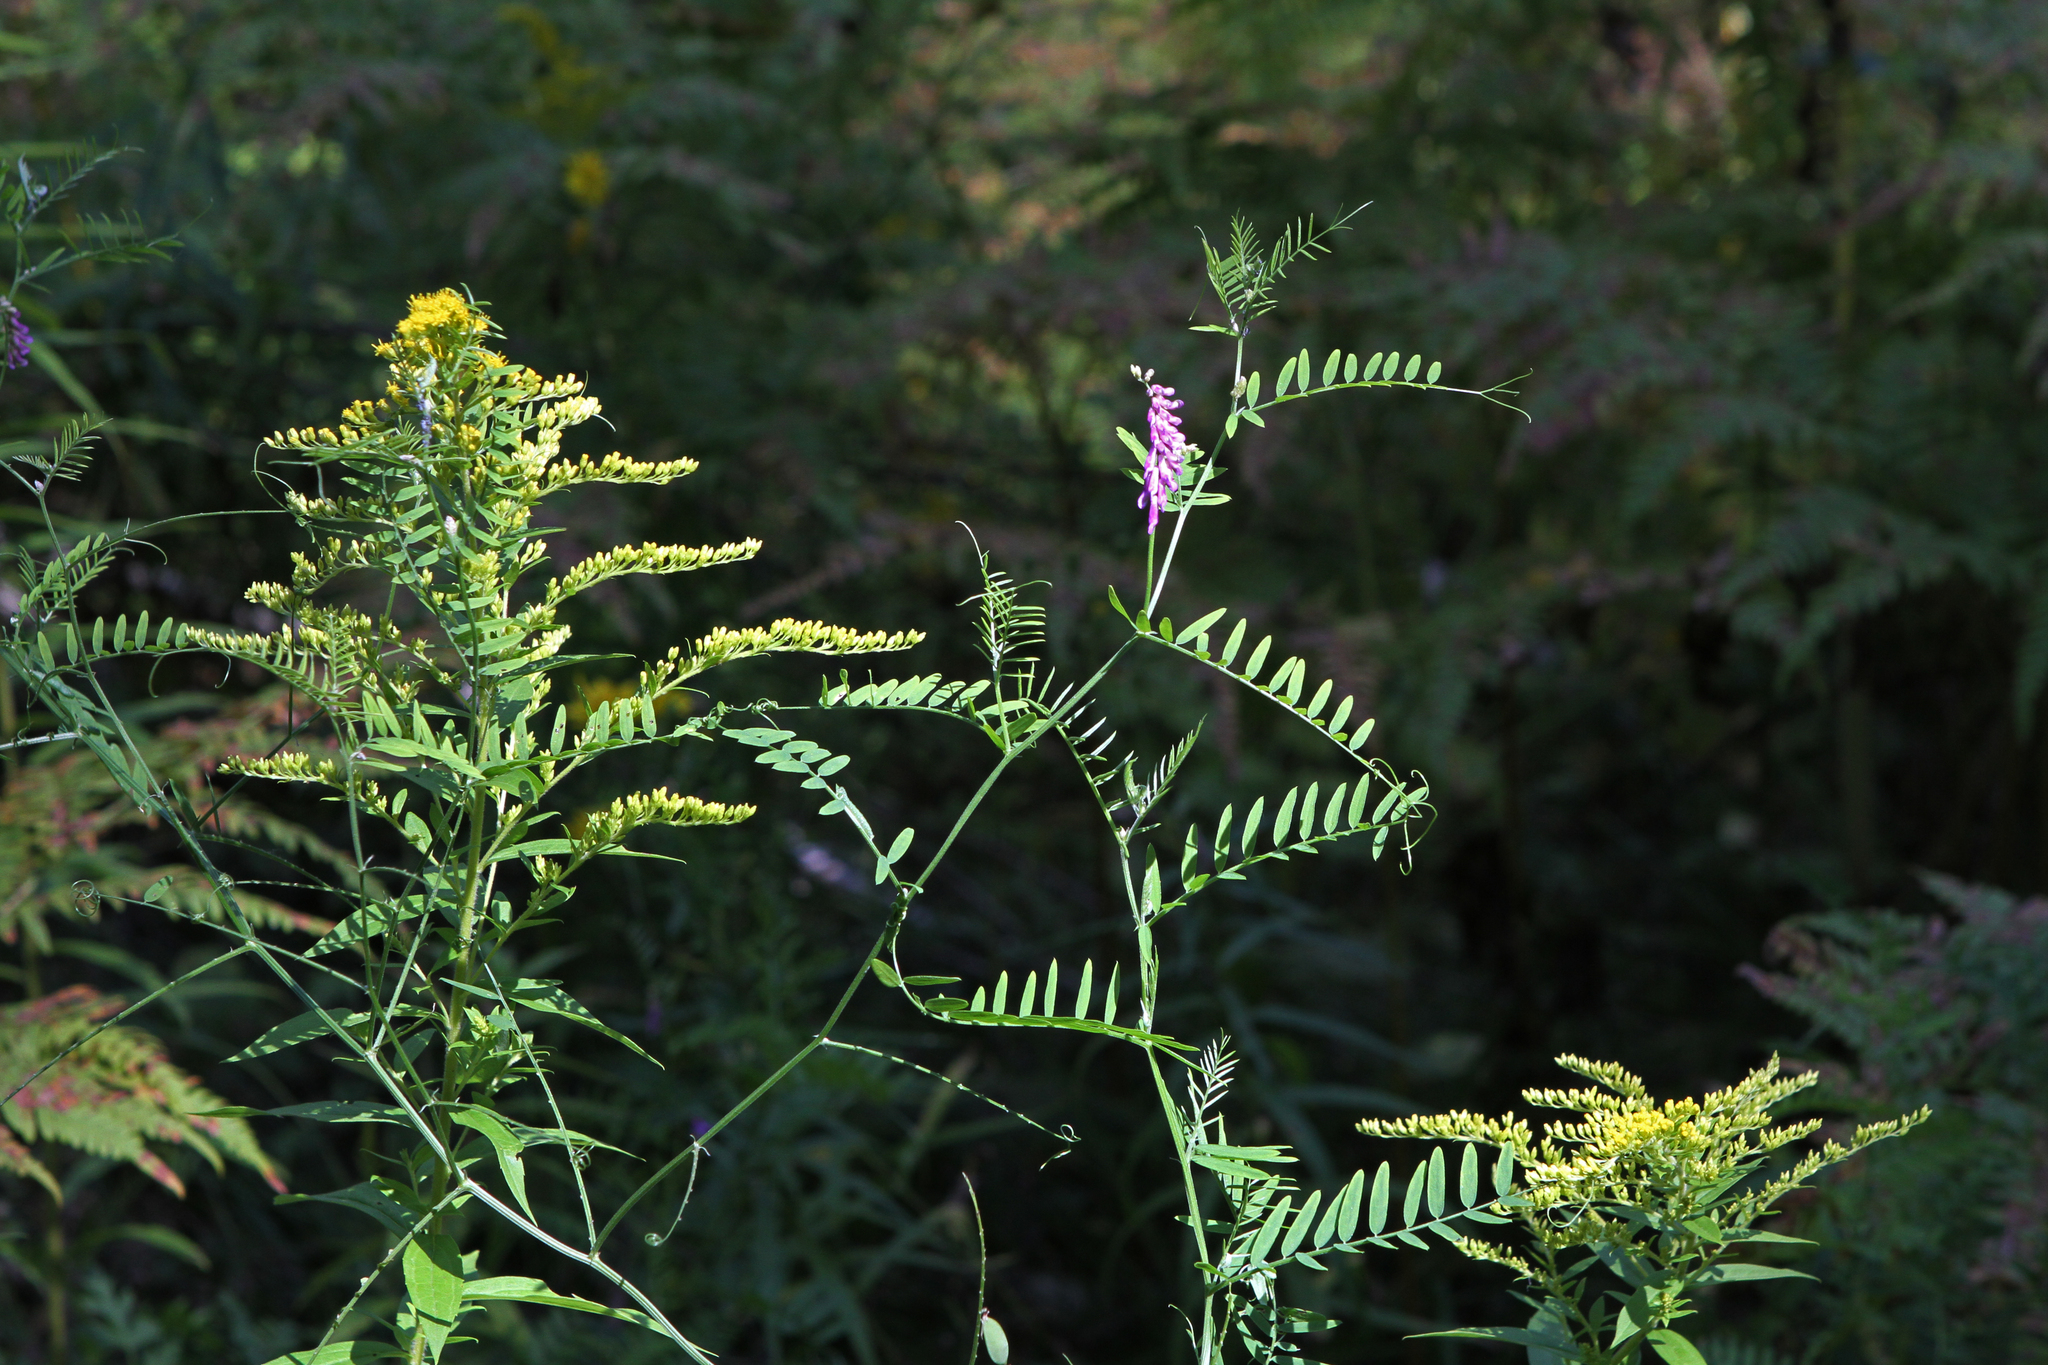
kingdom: Plantae
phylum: Tracheophyta
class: Magnoliopsida
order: Asterales
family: Asteraceae
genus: Solidago
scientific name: Solidago canadensis
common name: Canada goldenrod
